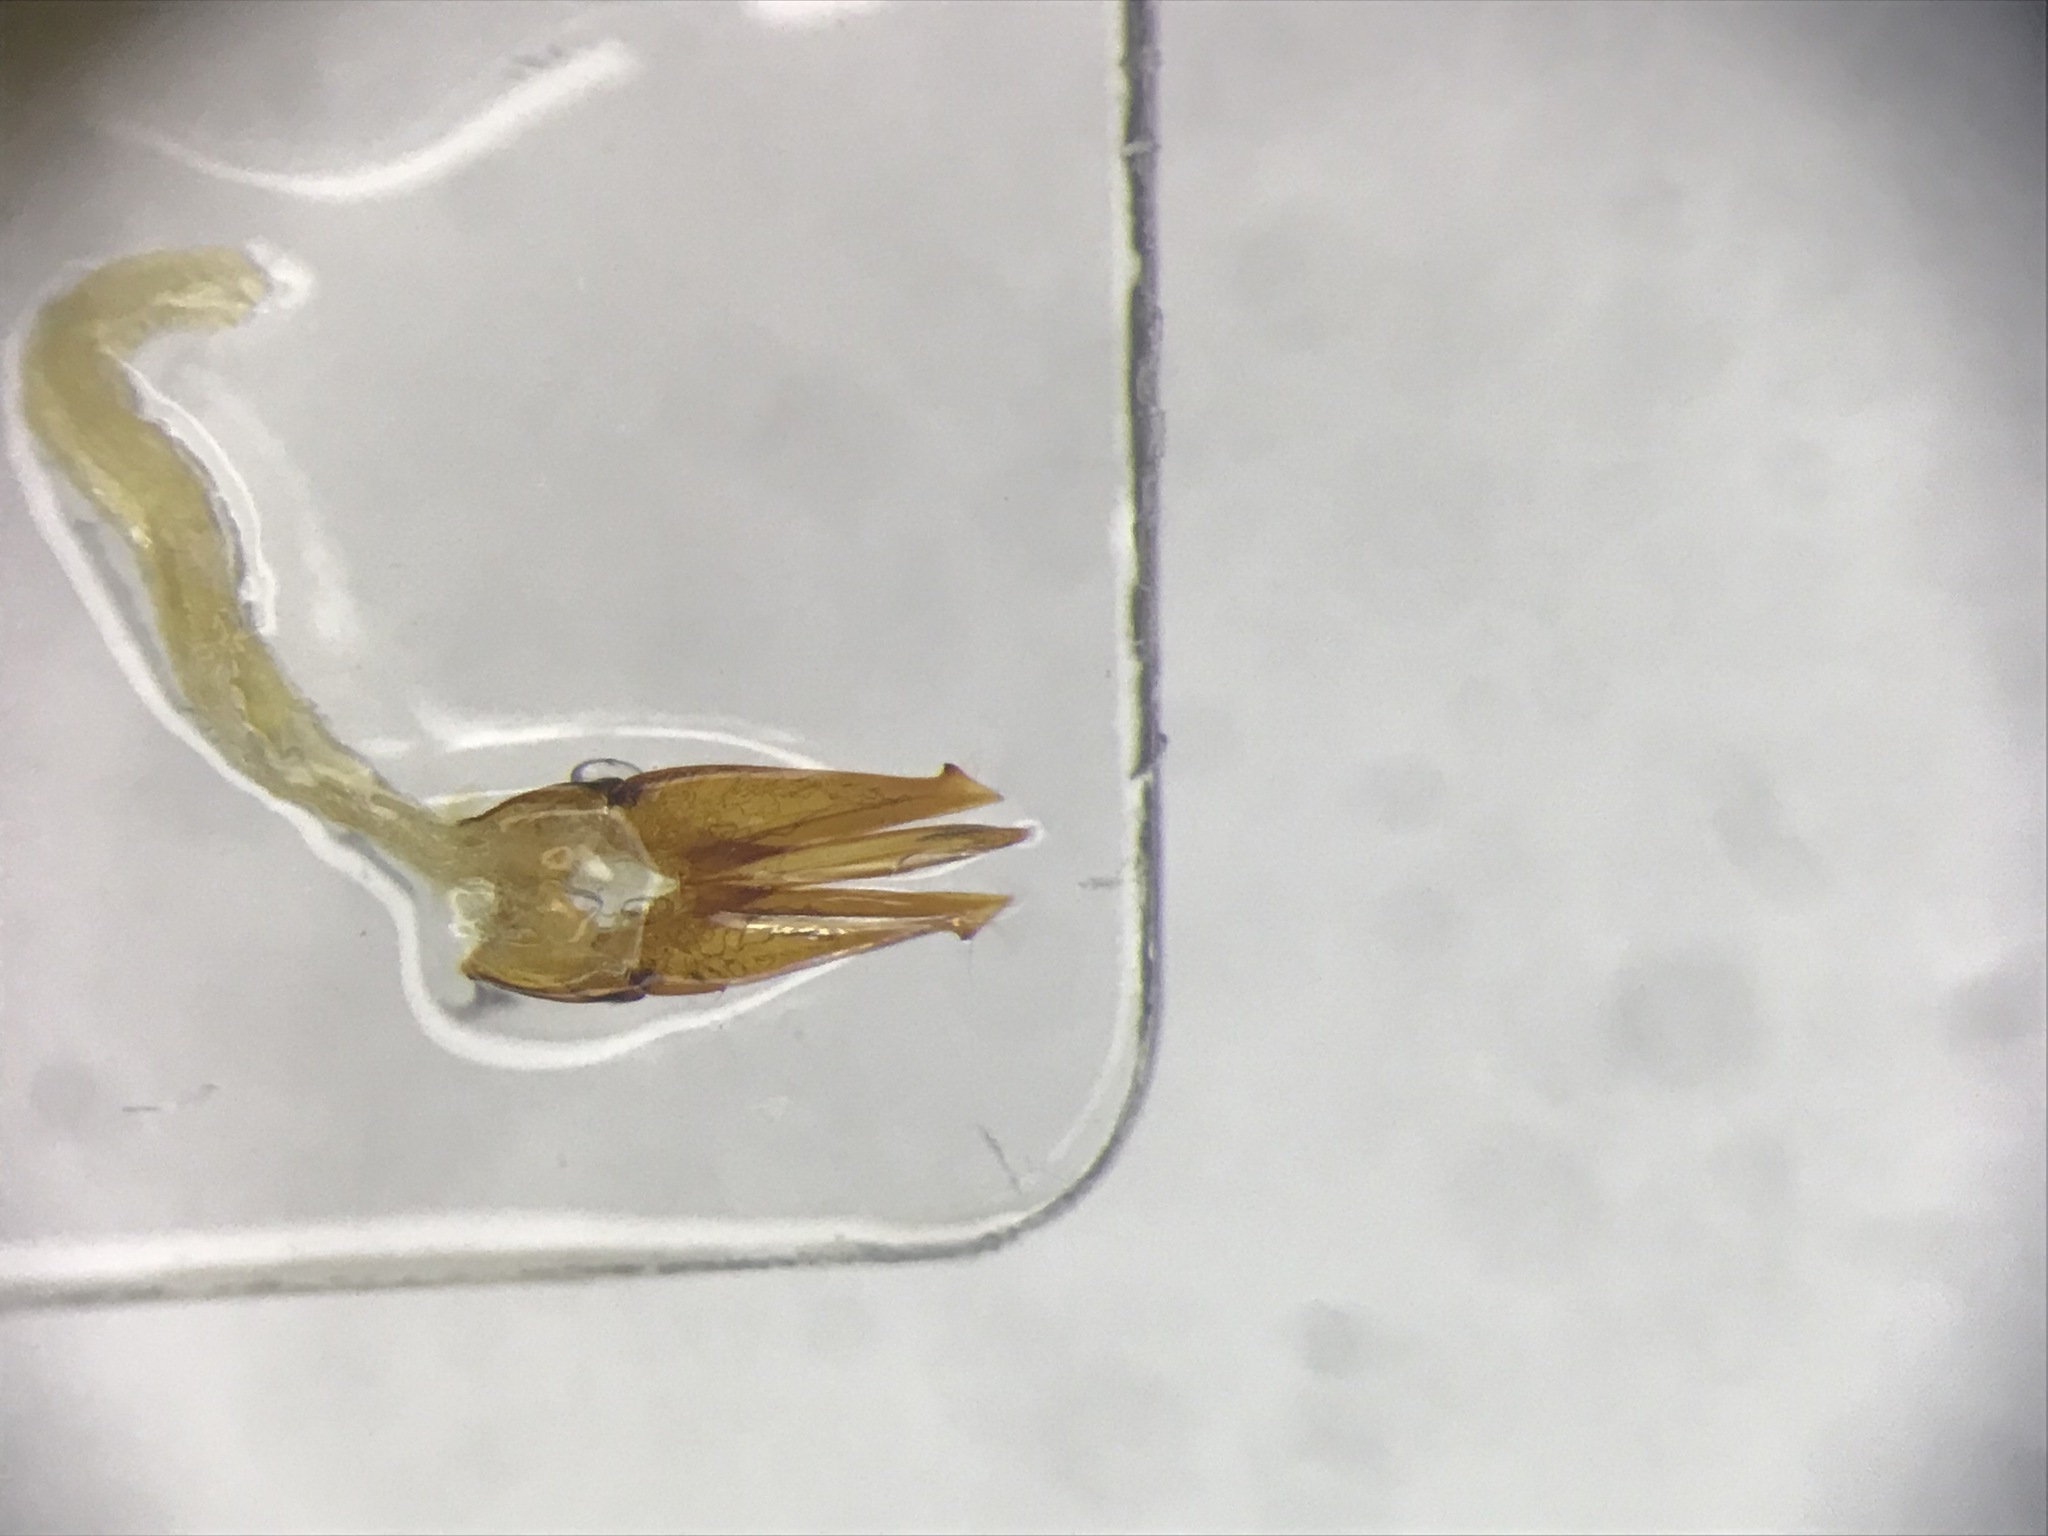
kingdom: Animalia
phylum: Arthropoda
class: Insecta
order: Coleoptera
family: Elateridae
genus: Ampedus
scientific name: Ampedus vitiosus
